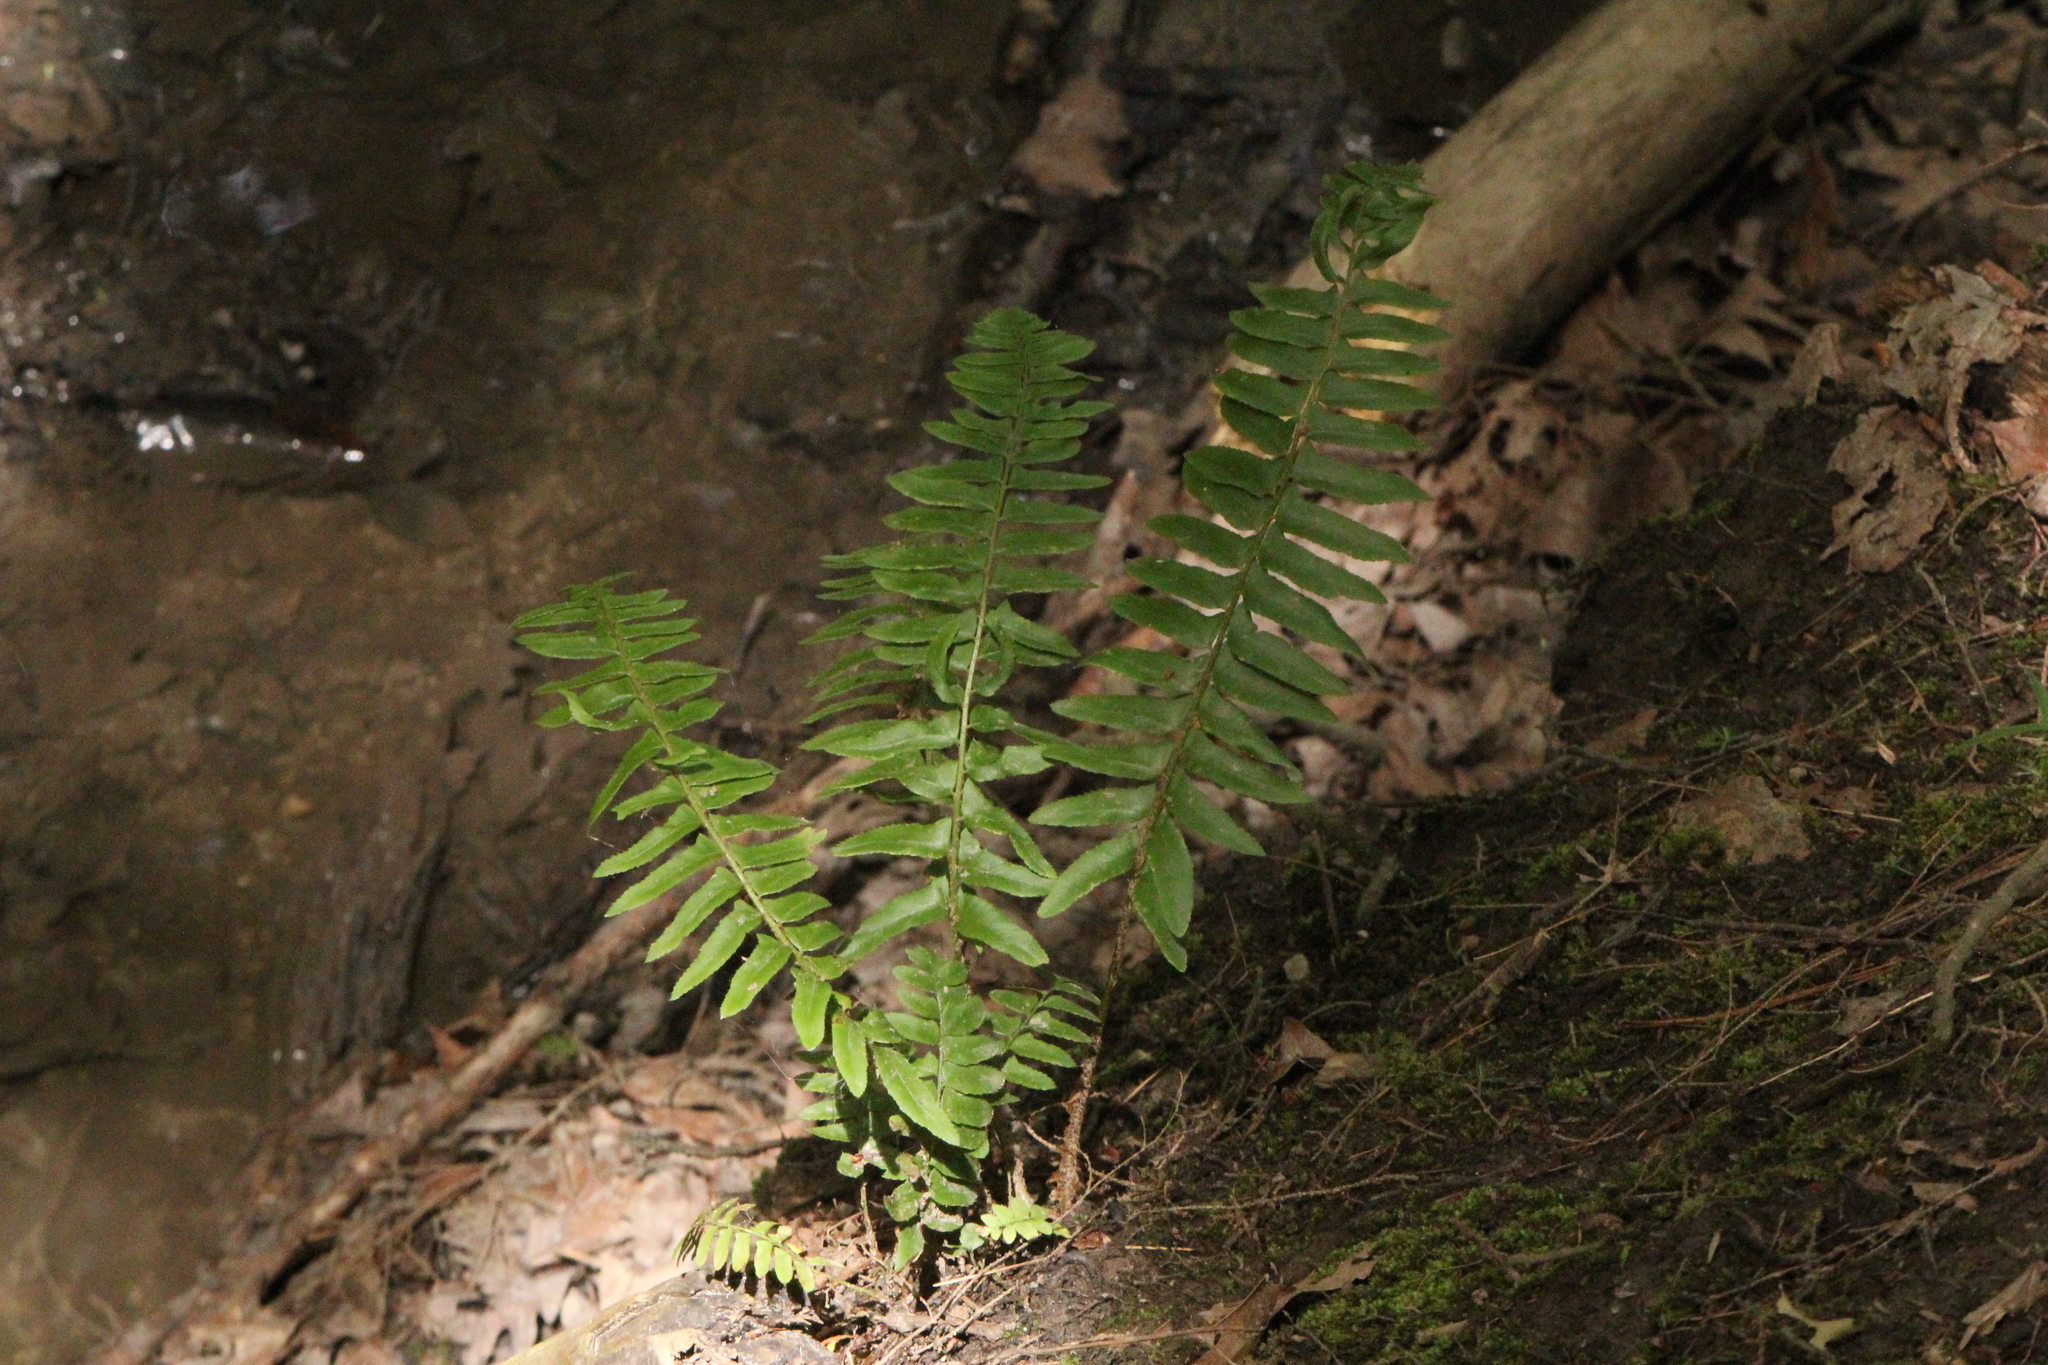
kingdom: Plantae
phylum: Tracheophyta
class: Polypodiopsida
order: Polypodiales
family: Dryopteridaceae
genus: Polystichum
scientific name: Polystichum acrostichoides
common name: Christmas fern
